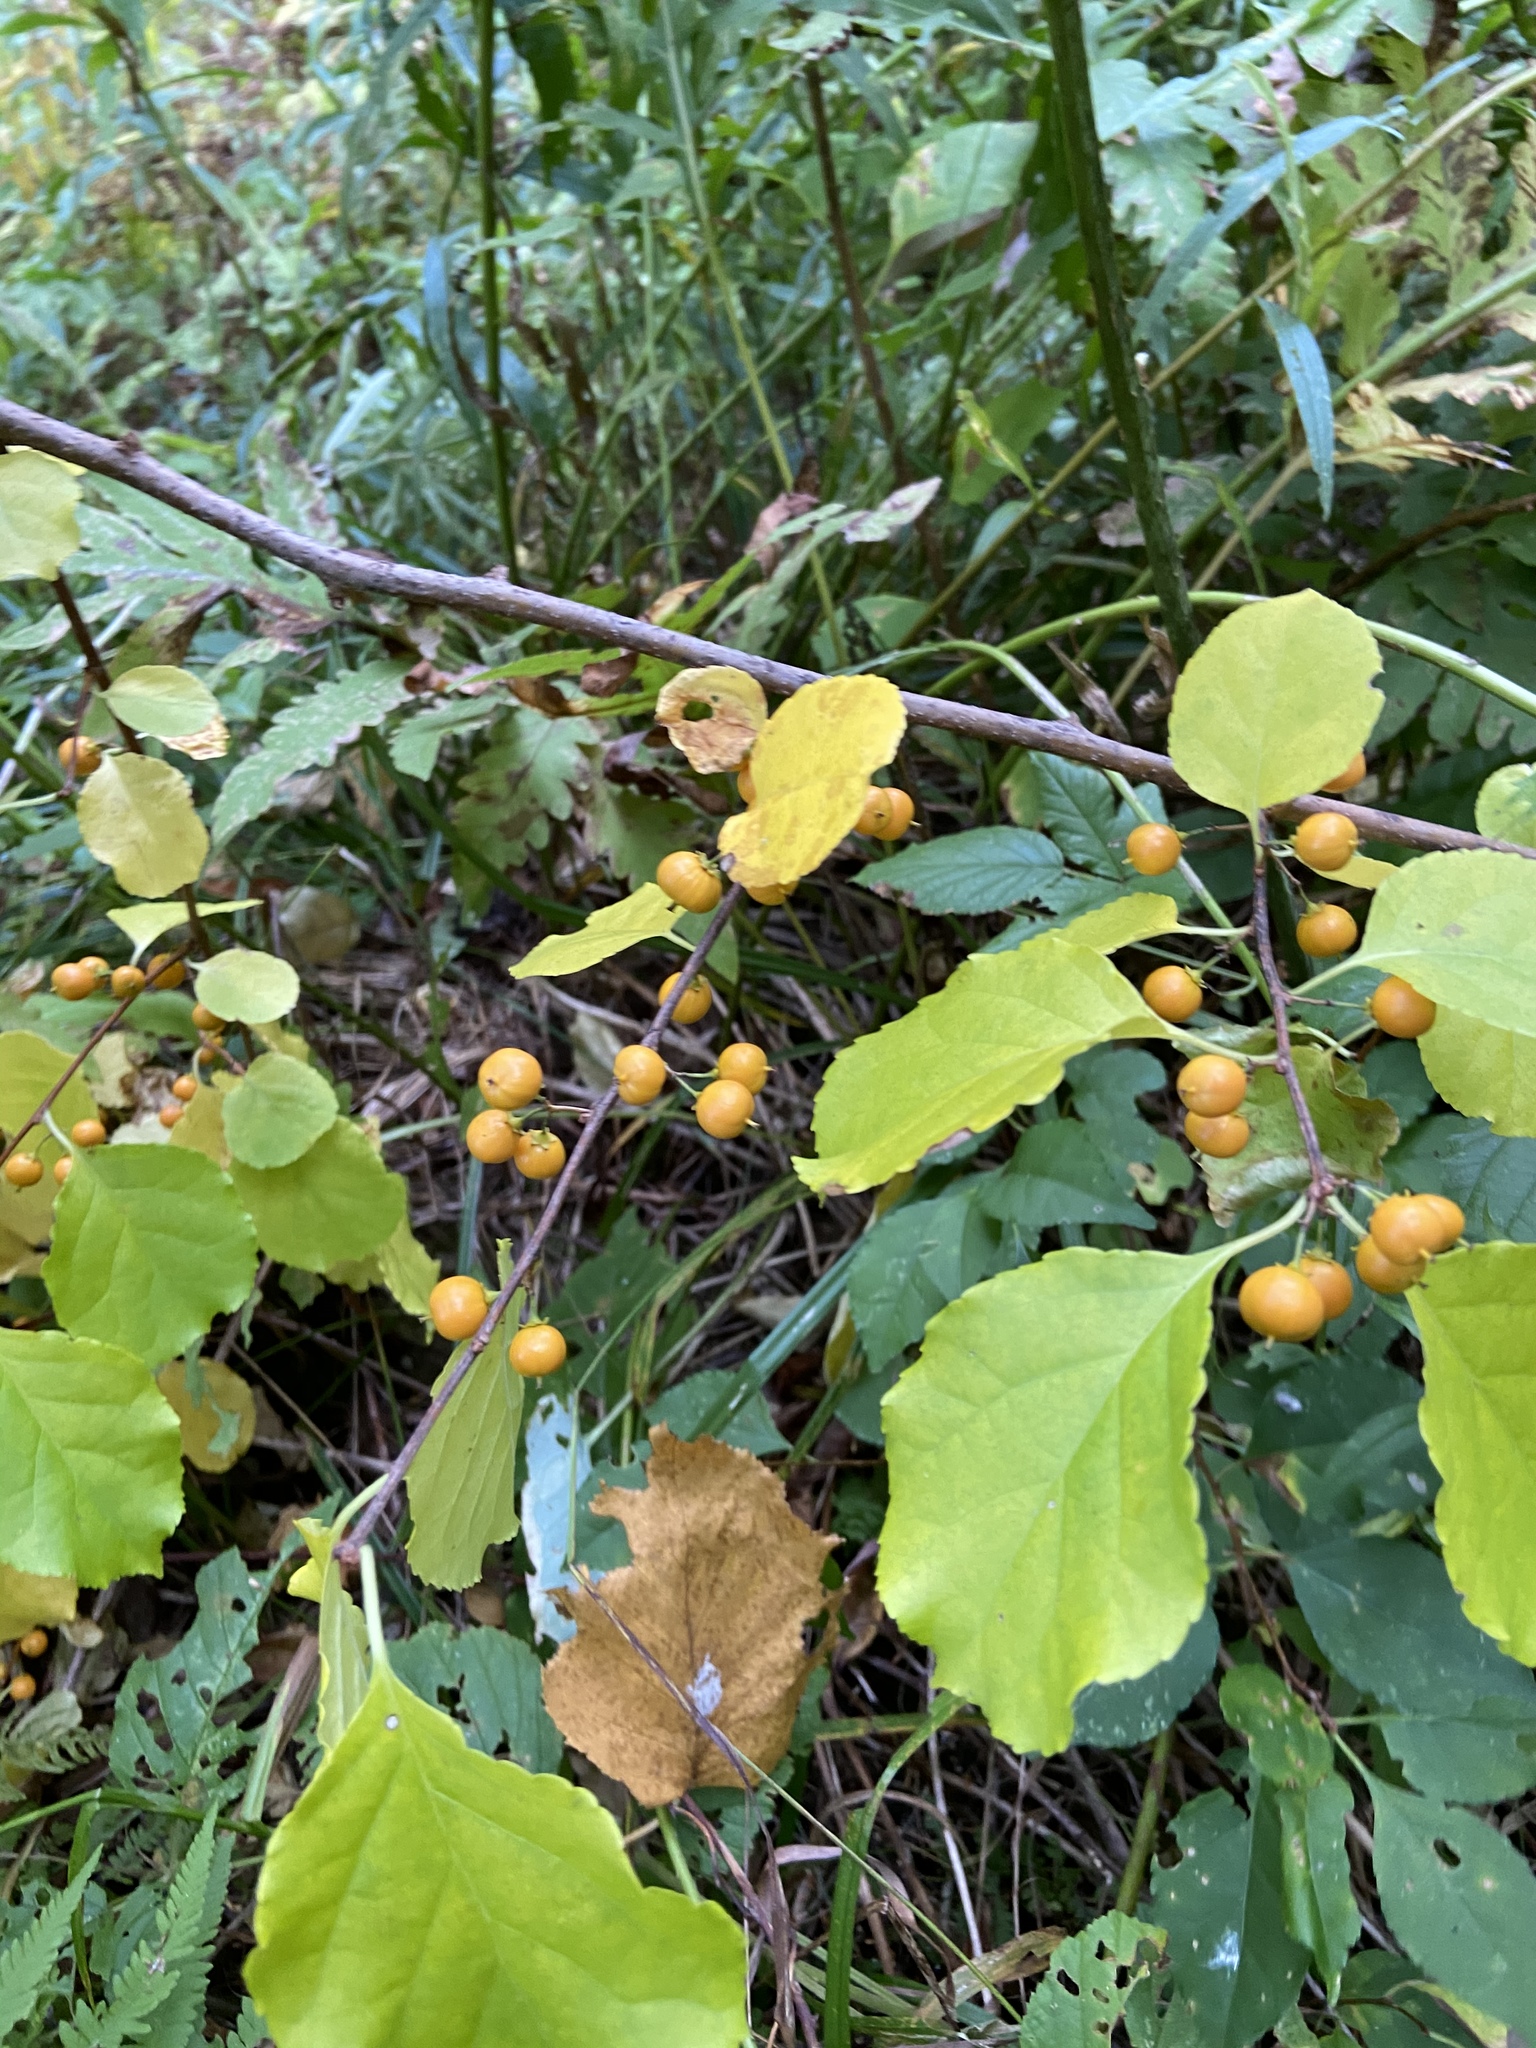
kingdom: Plantae
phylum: Tracheophyta
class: Magnoliopsida
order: Celastrales
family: Celastraceae
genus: Celastrus
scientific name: Celastrus orbiculatus
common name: Oriental bittersweet
